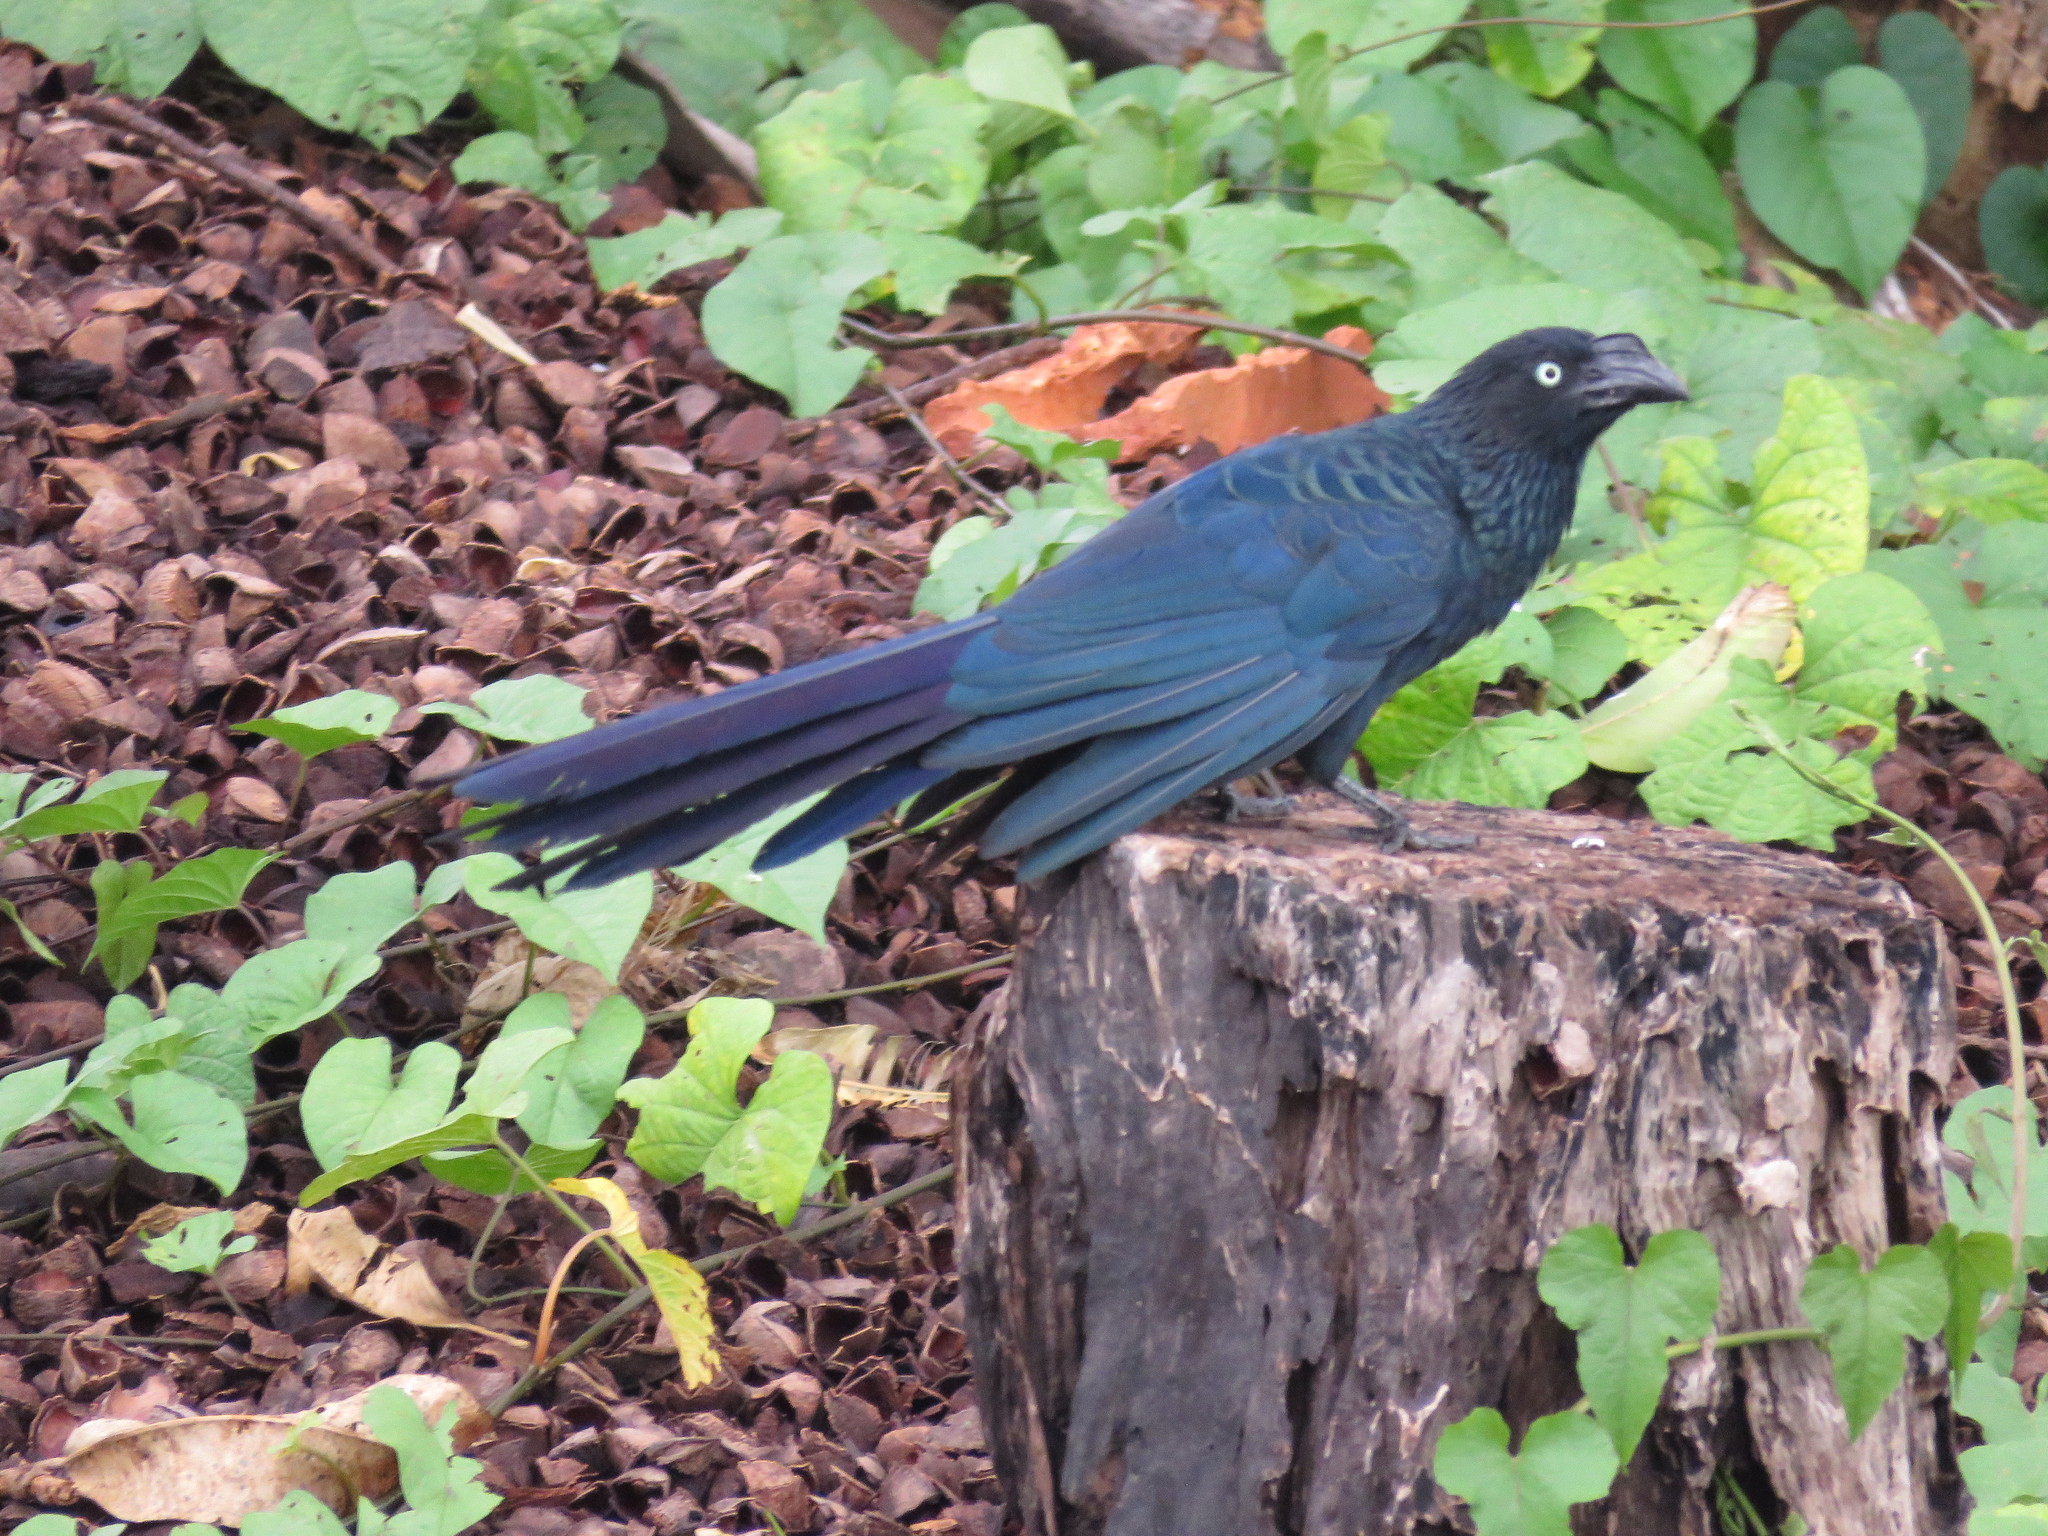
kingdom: Animalia
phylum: Chordata
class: Aves
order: Cuculiformes
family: Cuculidae
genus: Crotophaga
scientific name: Crotophaga major
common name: Greater ani
